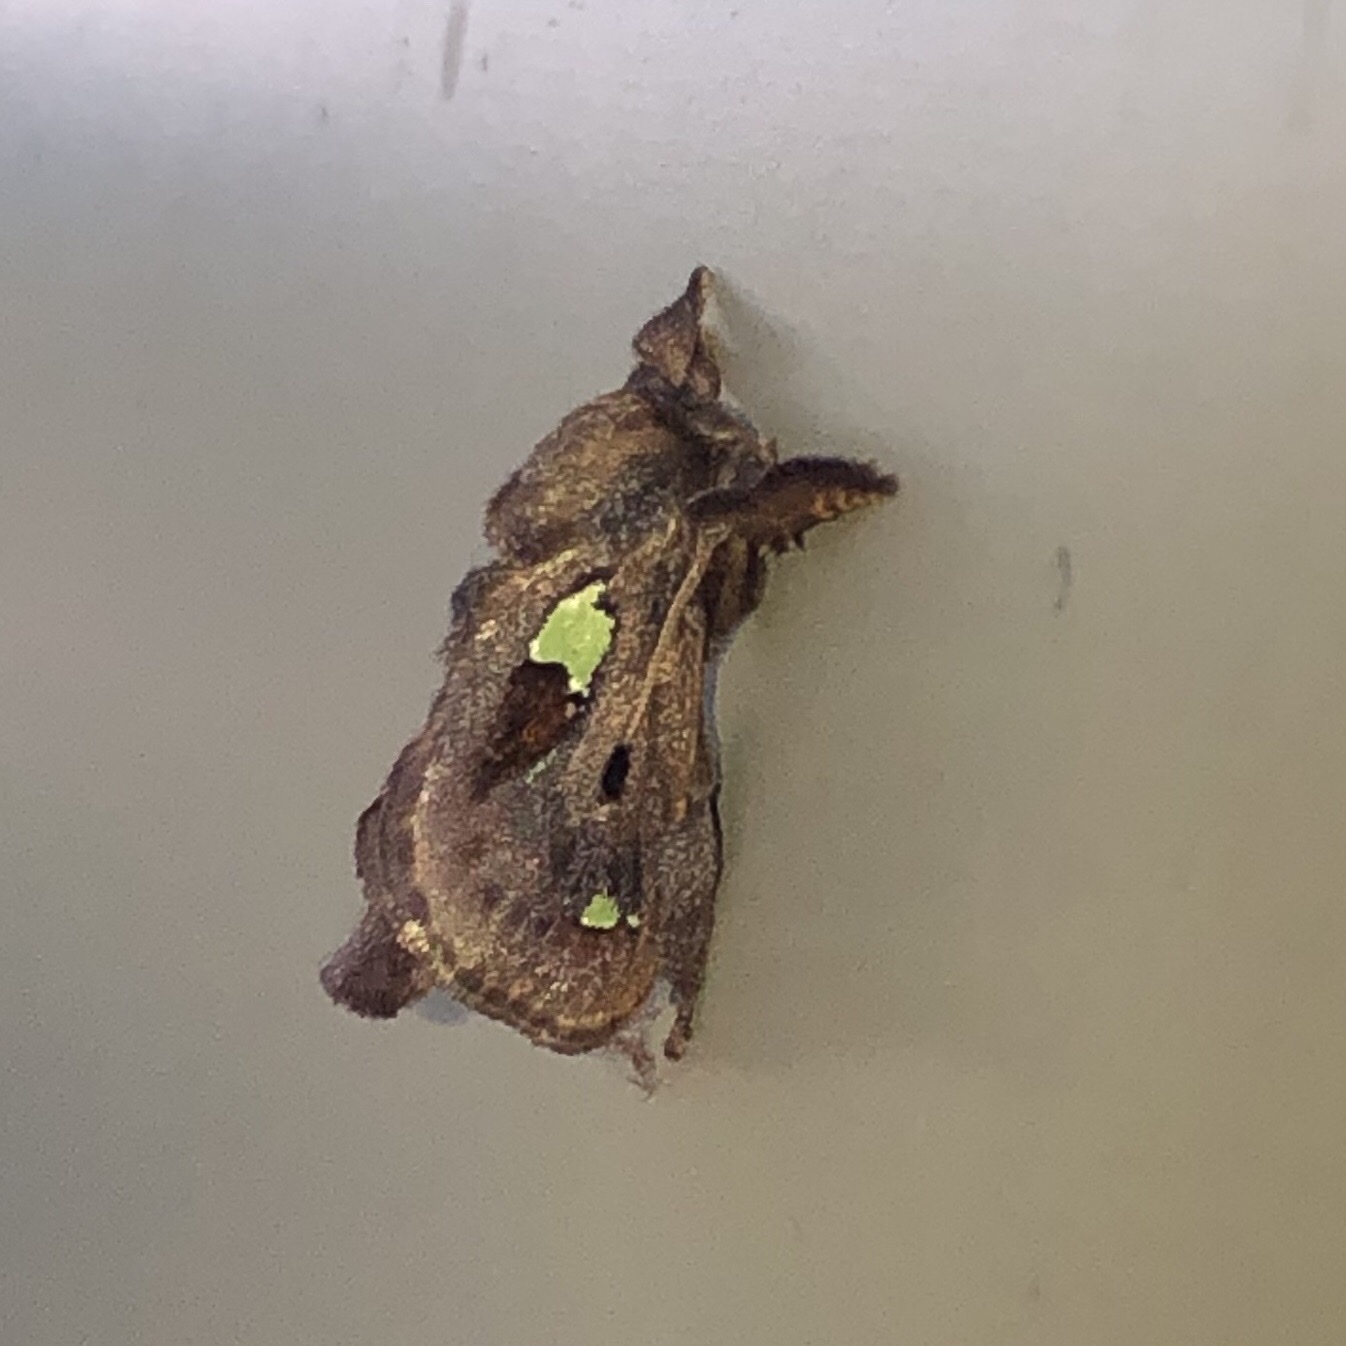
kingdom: Animalia
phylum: Arthropoda
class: Insecta
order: Lepidoptera
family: Limacodidae
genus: Euclea
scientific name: Euclea delphinii
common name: Spiny oak-slug moth
